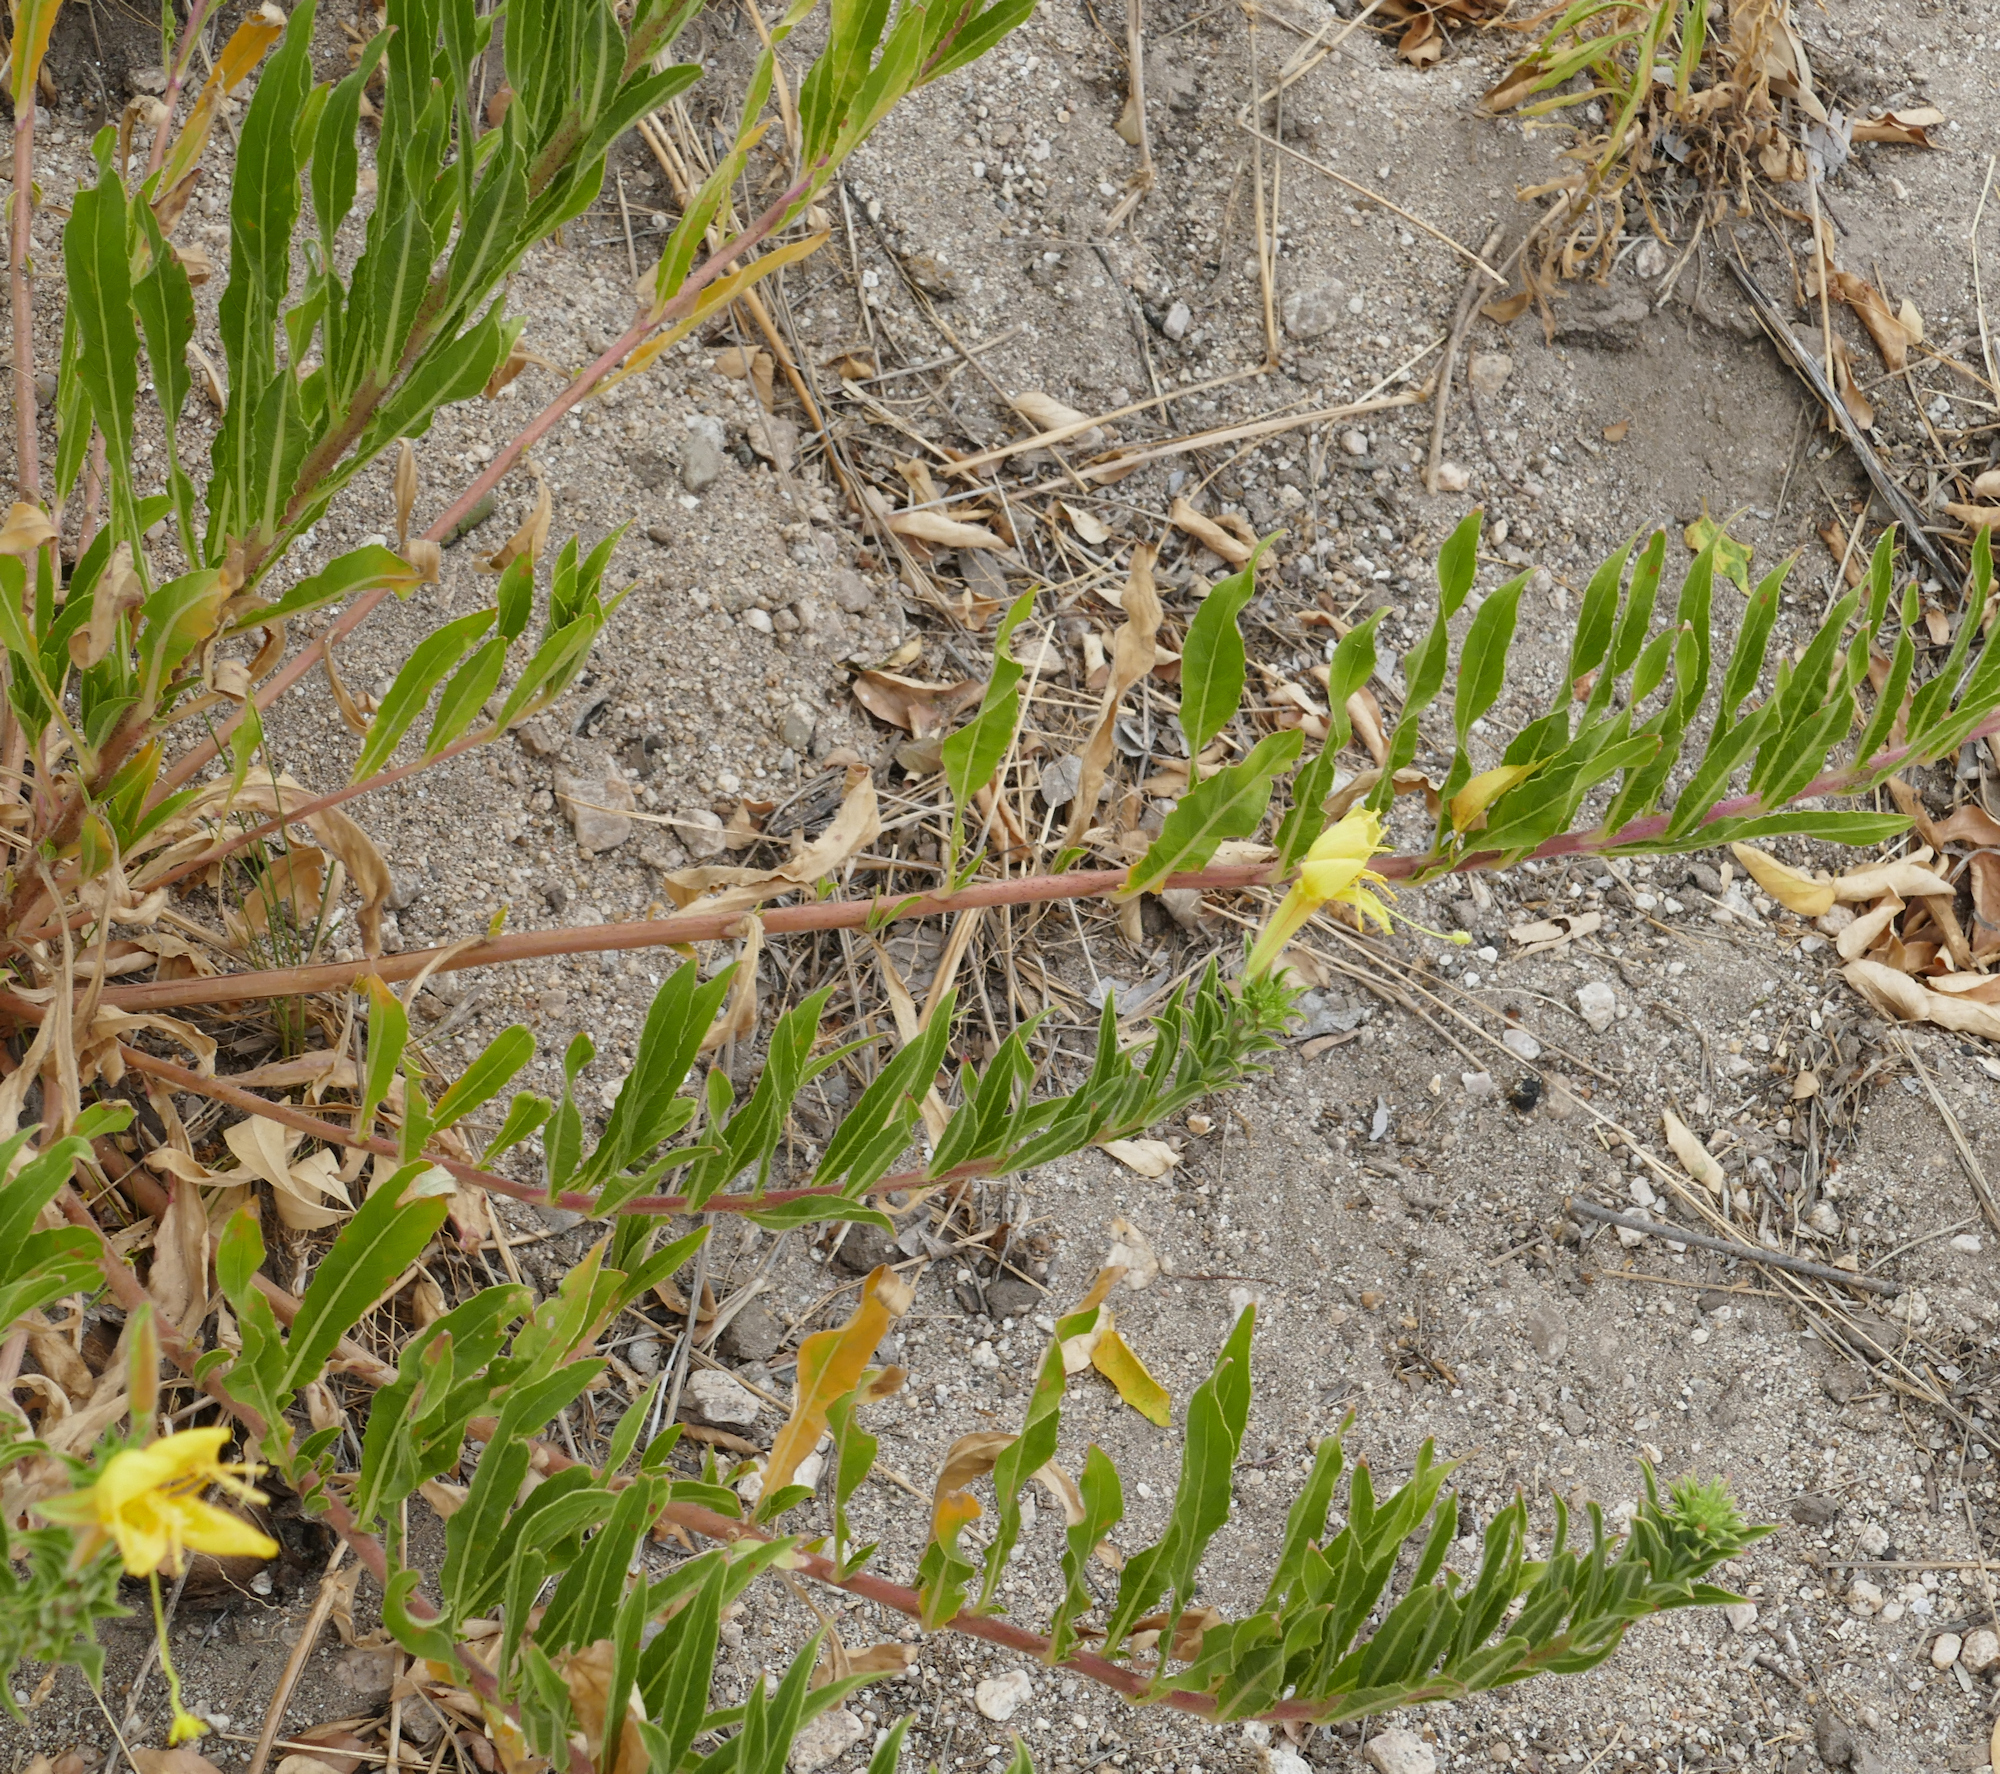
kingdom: Plantae
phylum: Tracheophyta
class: Magnoliopsida
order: Myrtales
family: Onagraceae
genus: Oenothera
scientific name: Oenothera elata
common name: Hooker's evening-primrose
